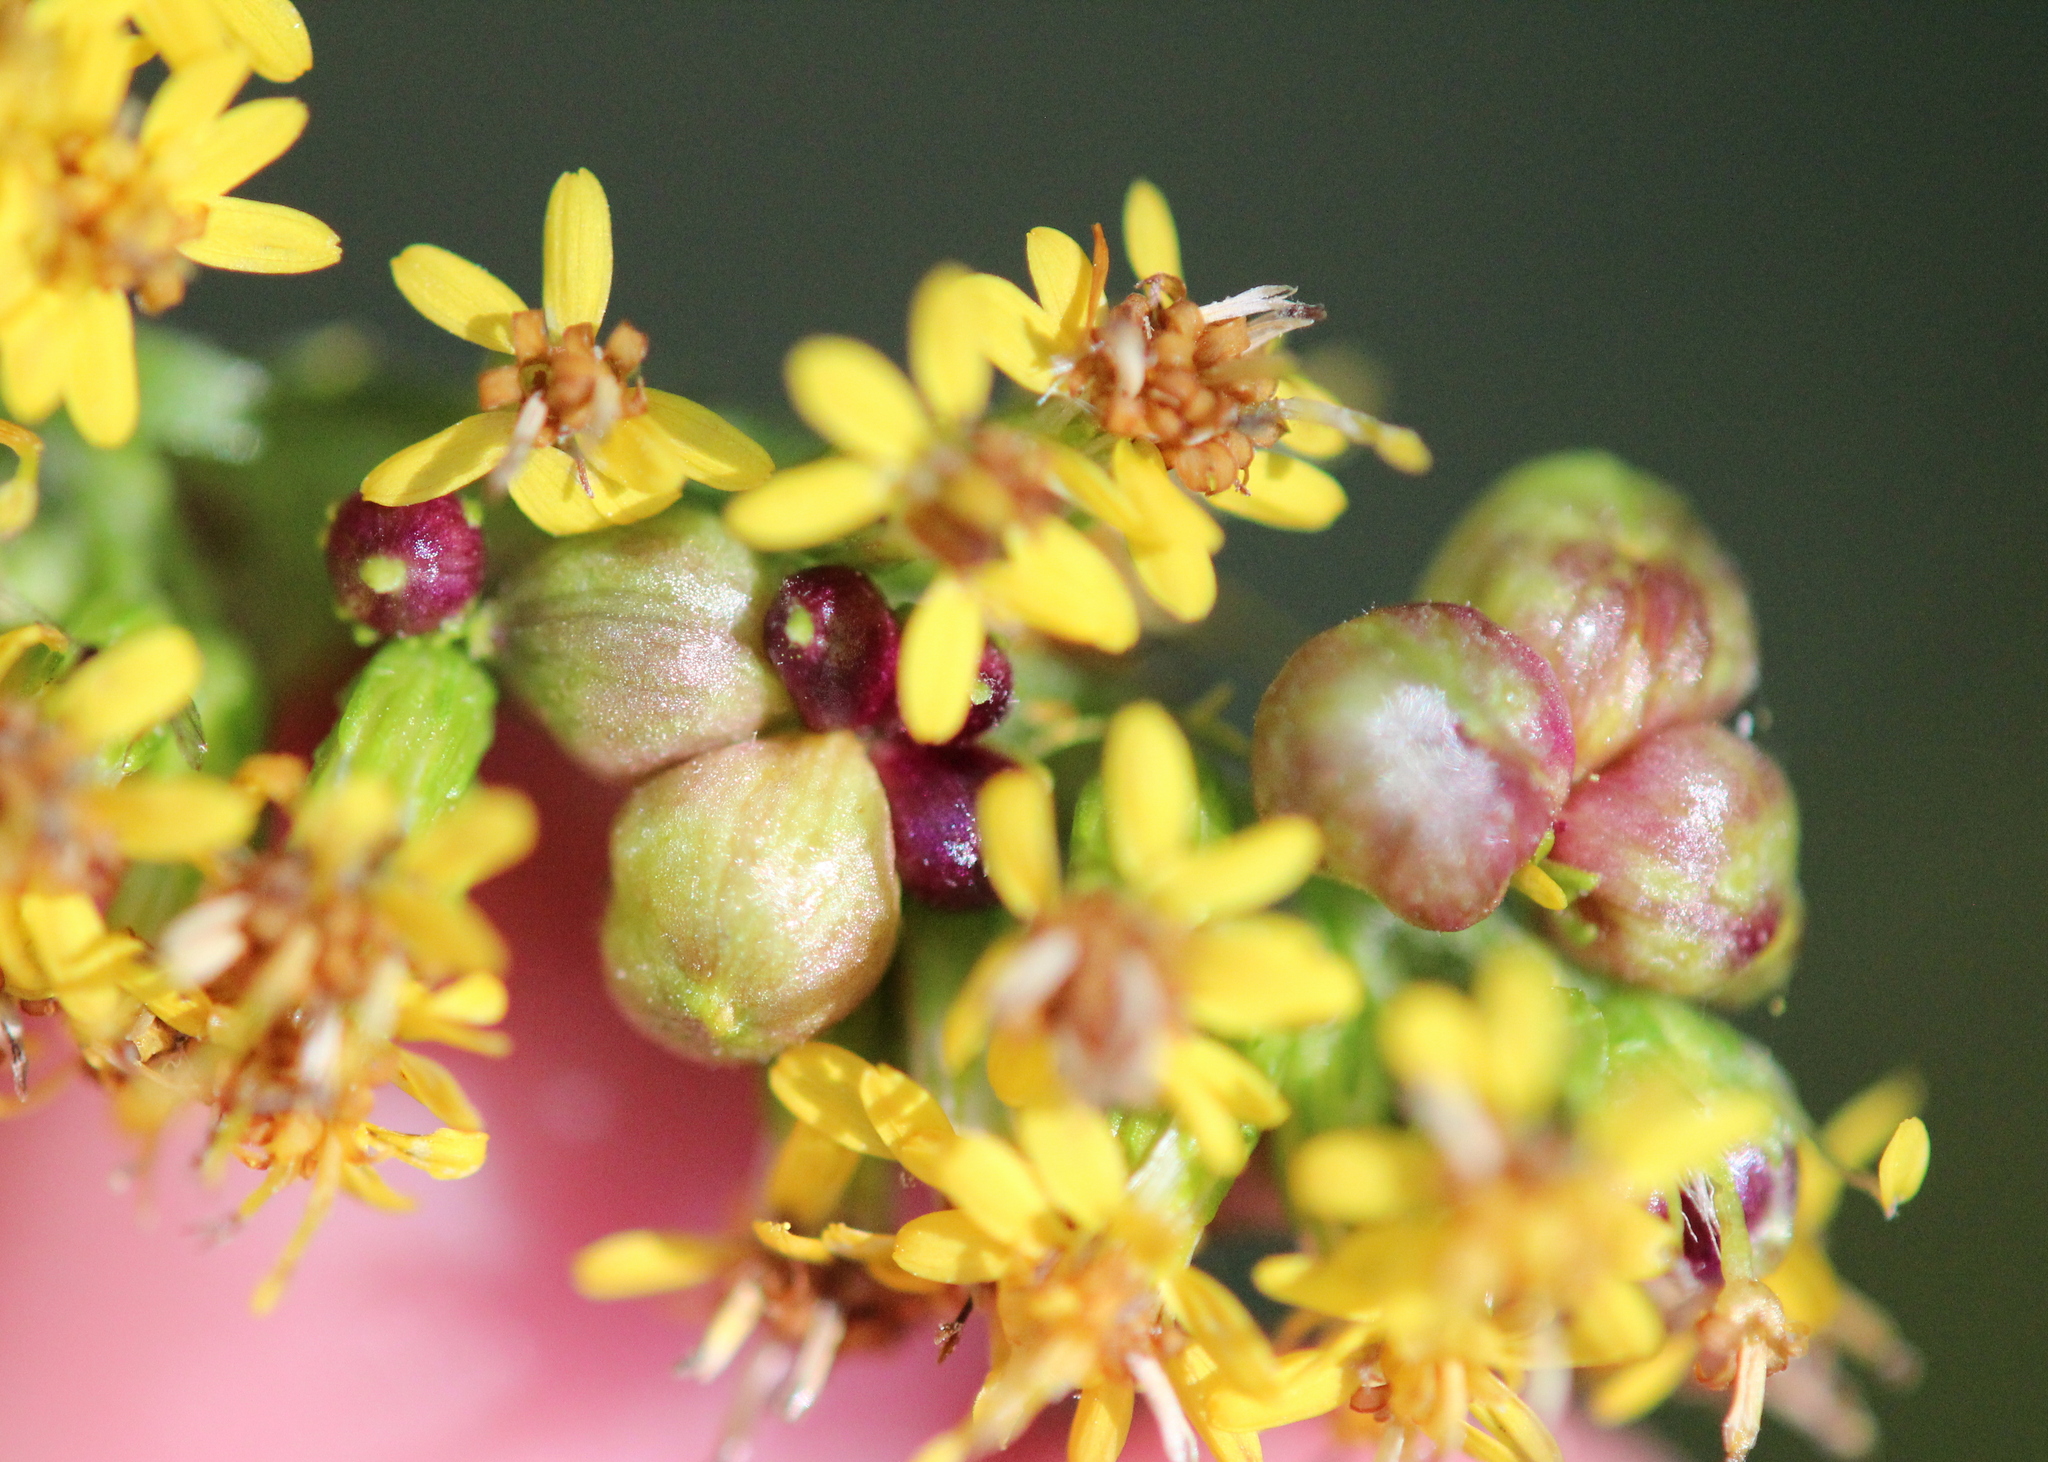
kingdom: Animalia
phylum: Arthropoda
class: Insecta
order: Diptera
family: Cecidomyiidae
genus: Schizomyia
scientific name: Schizomyia racemicola
